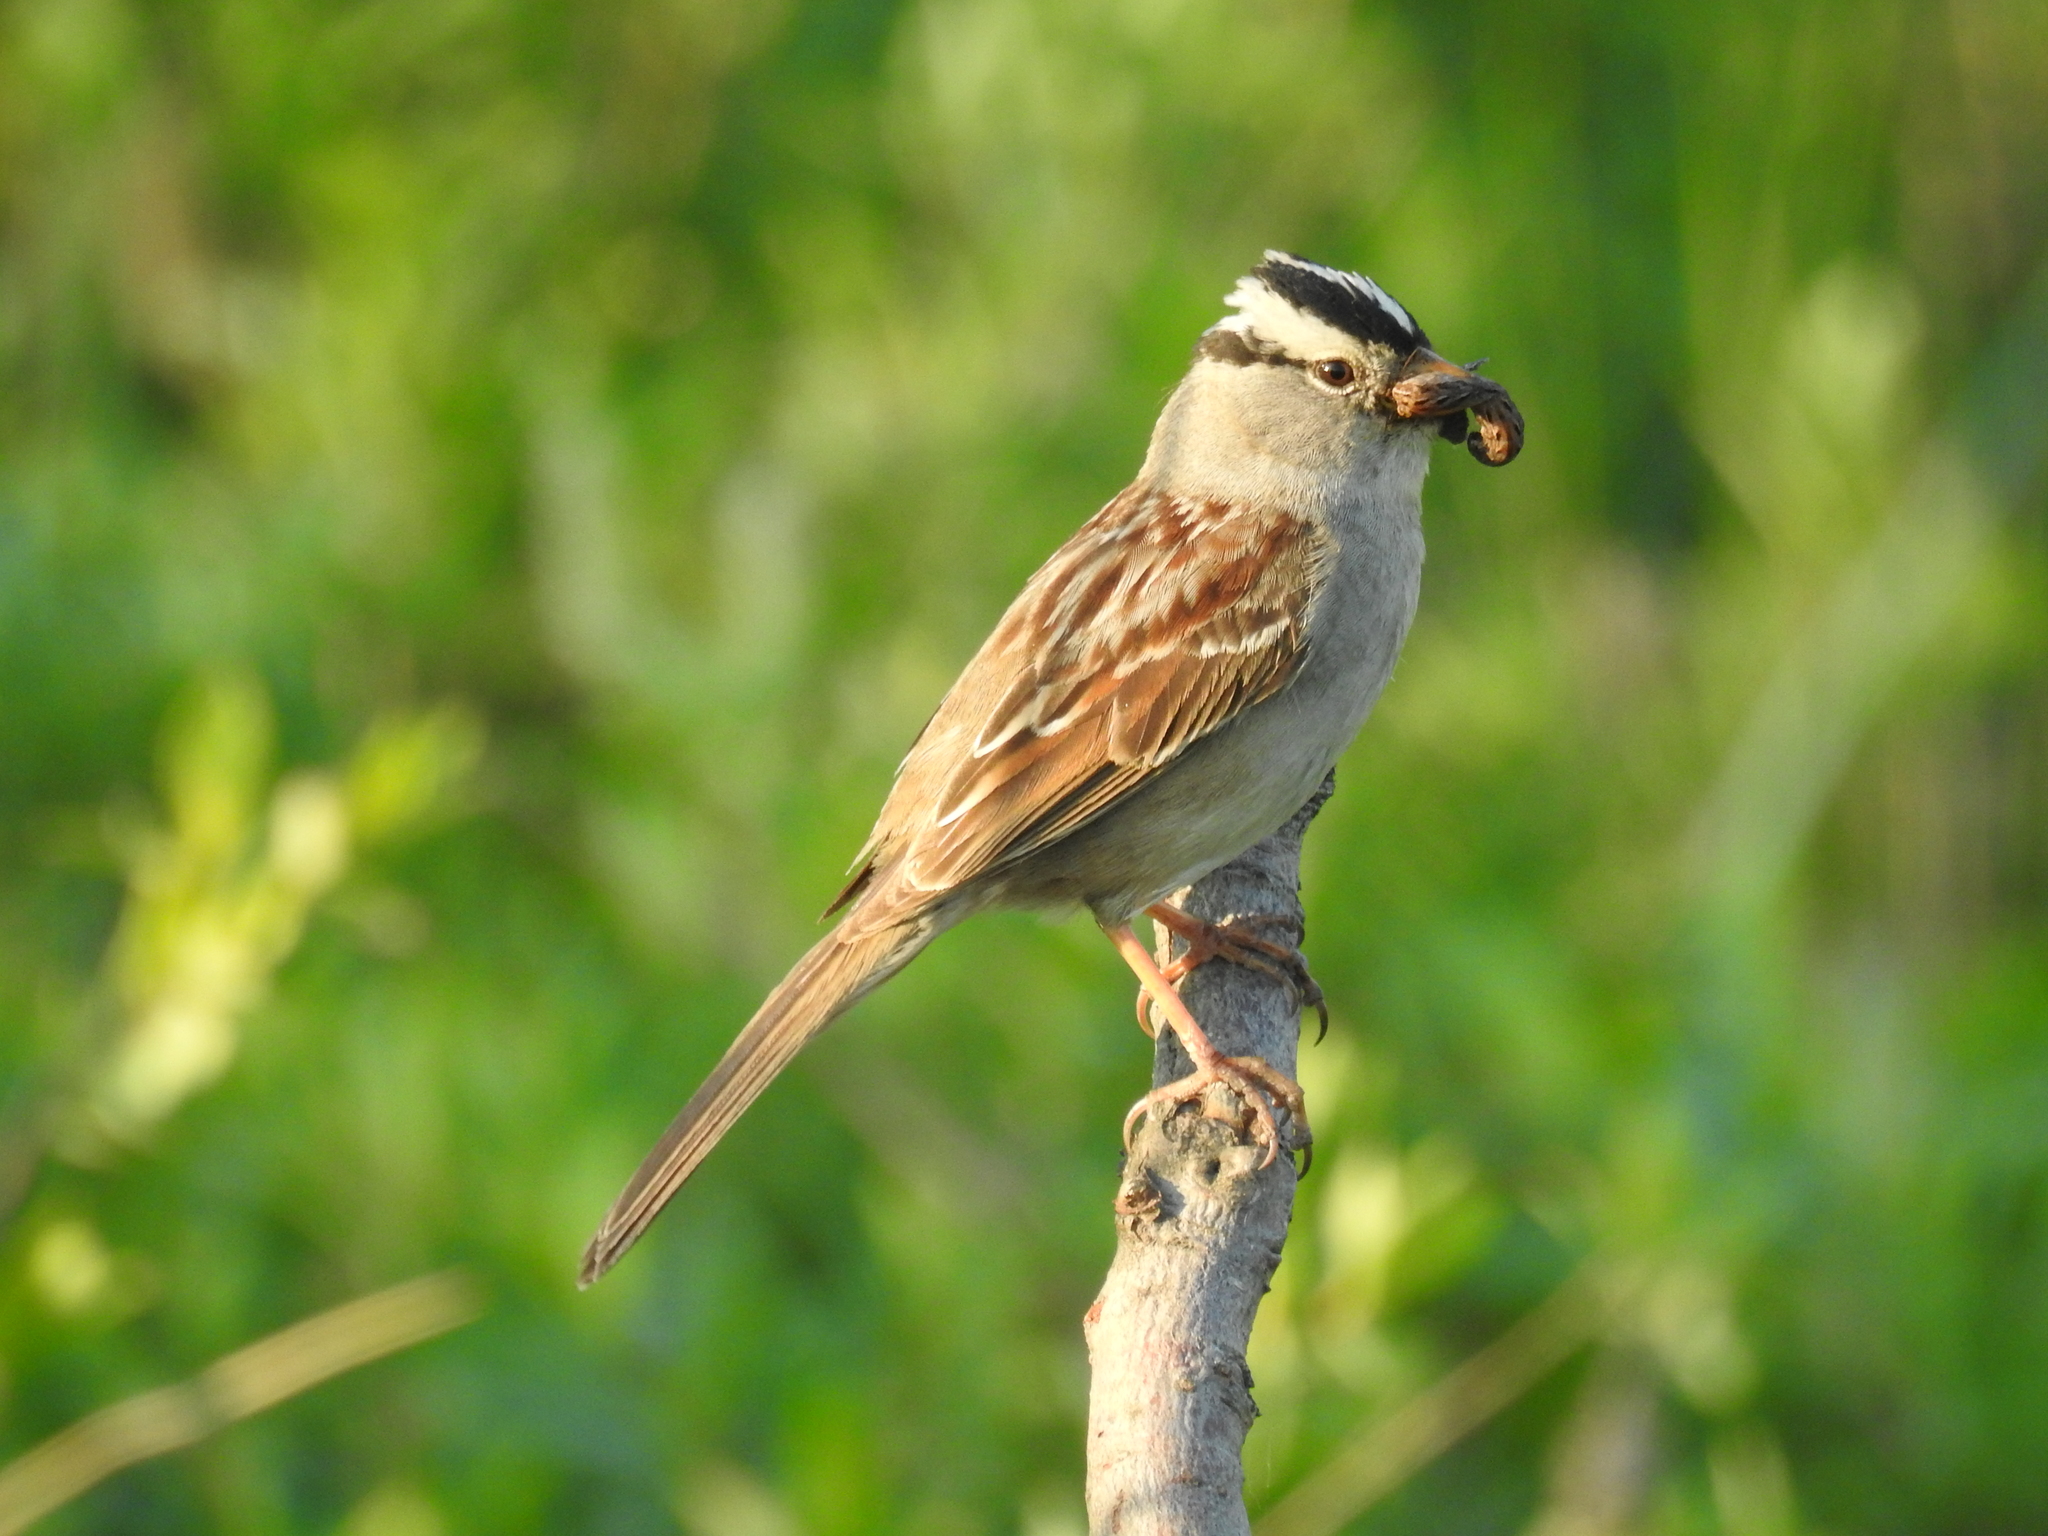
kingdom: Animalia
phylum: Chordata
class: Aves
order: Passeriformes
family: Passerellidae
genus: Zonotrichia
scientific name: Zonotrichia leucophrys
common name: White-crowned sparrow
